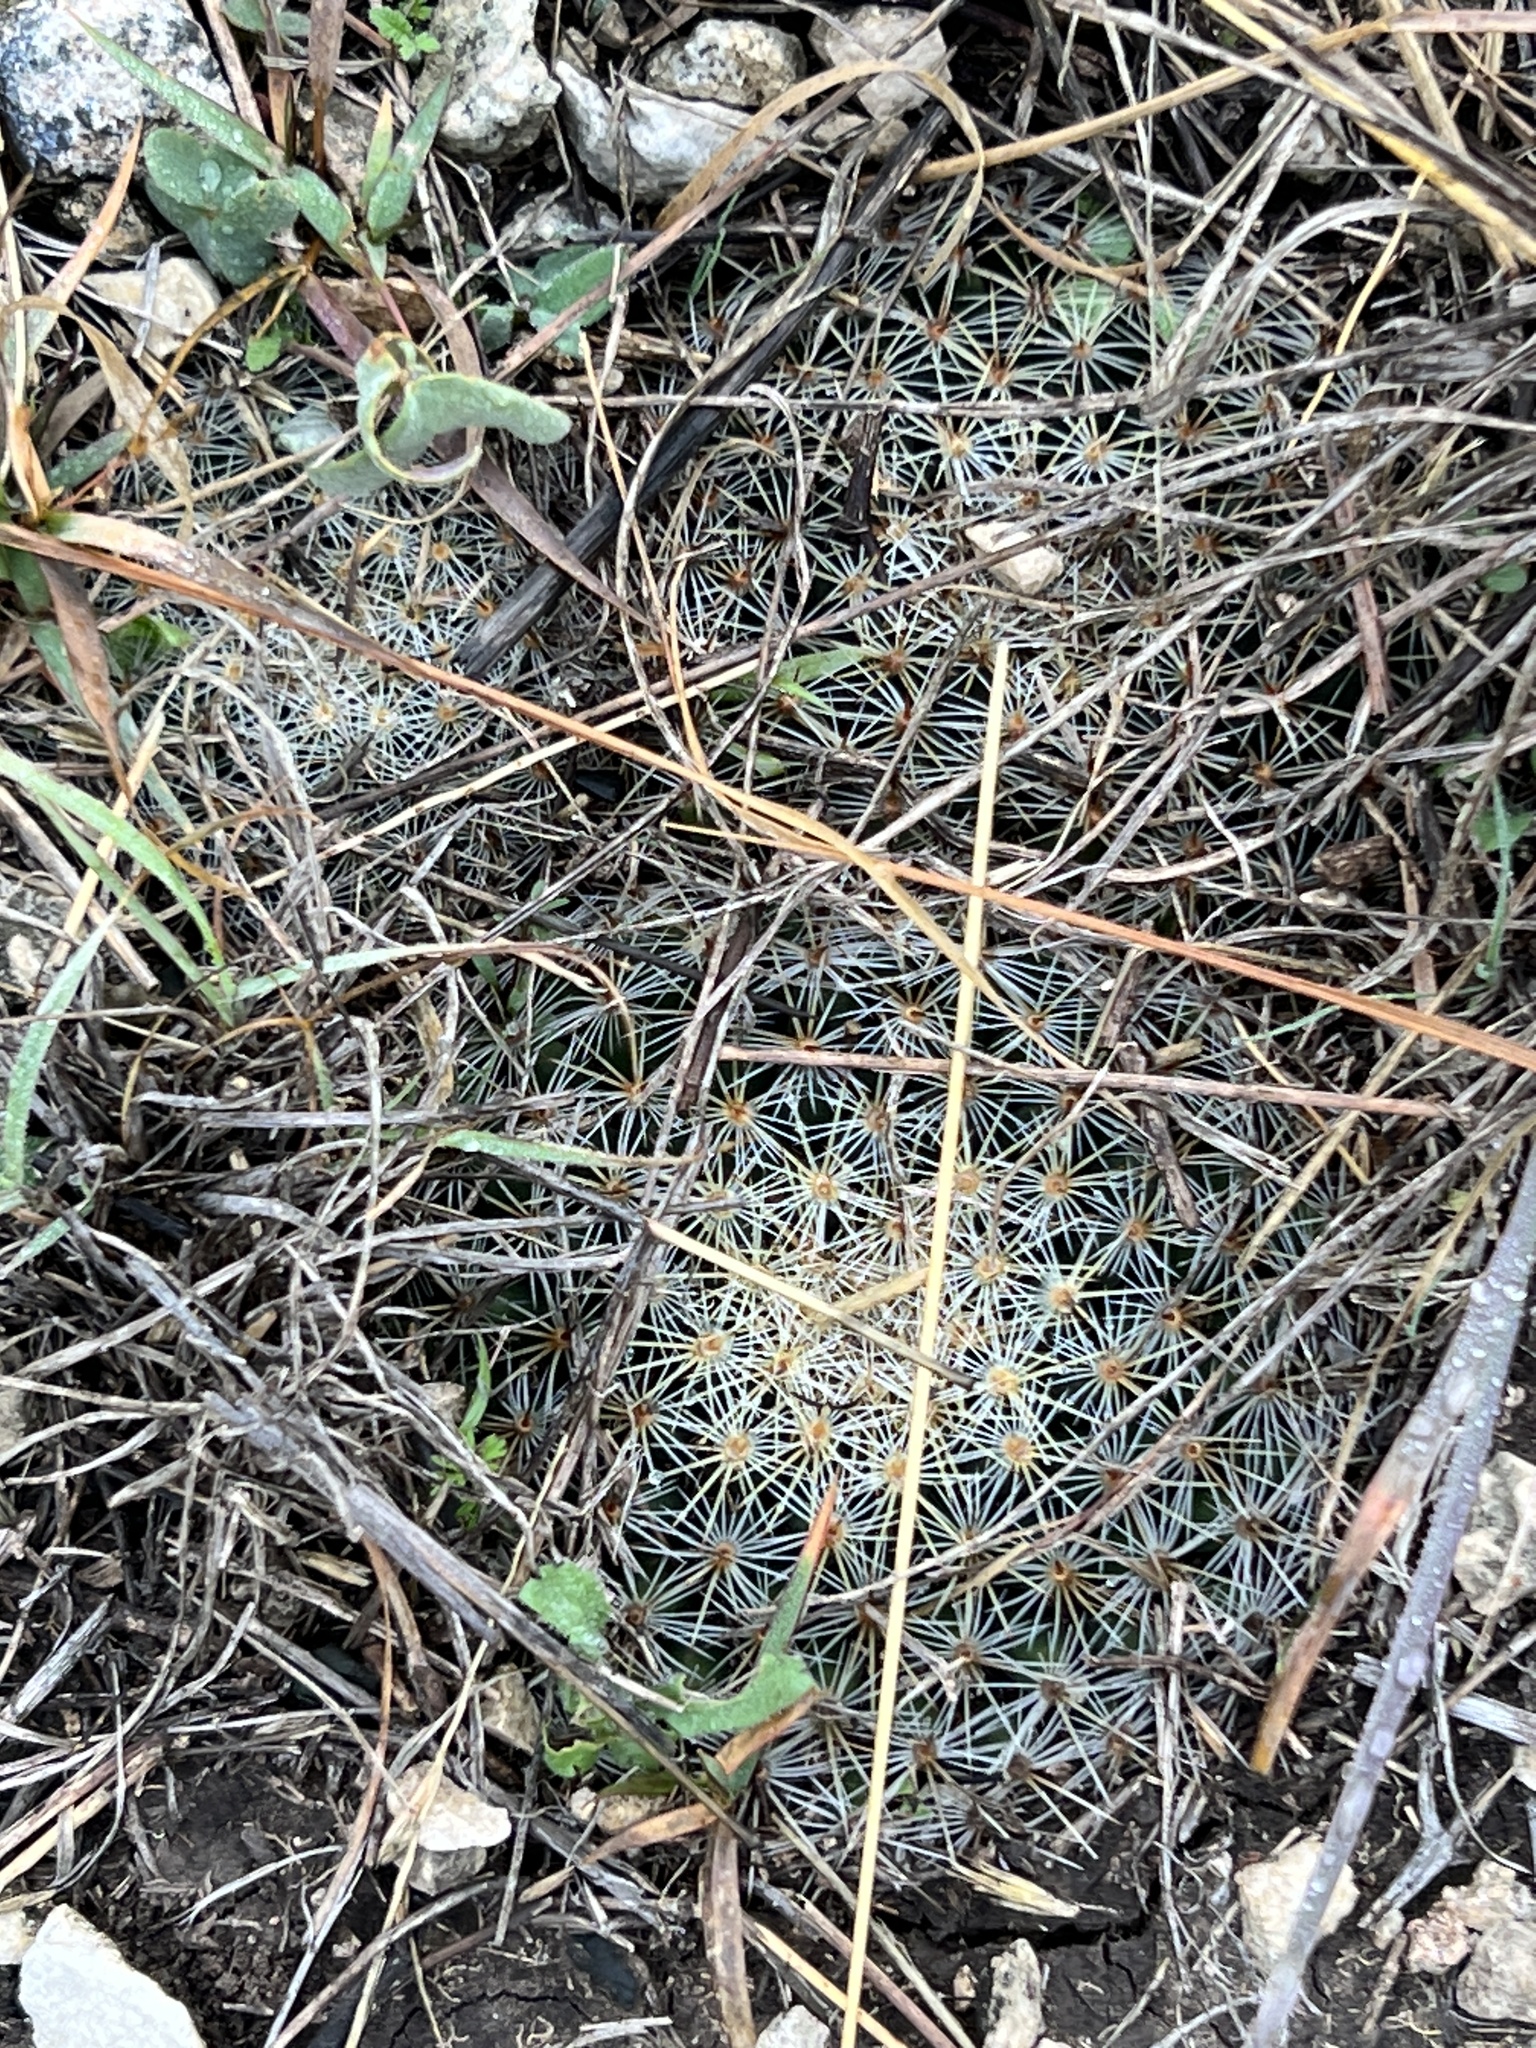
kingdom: Plantae
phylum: Tracheophyta
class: Magnoliopsida
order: Caryophyllales
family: Cactaceae
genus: Mammillaria
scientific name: Mammillaria heyderi
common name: Little nipple cactus
